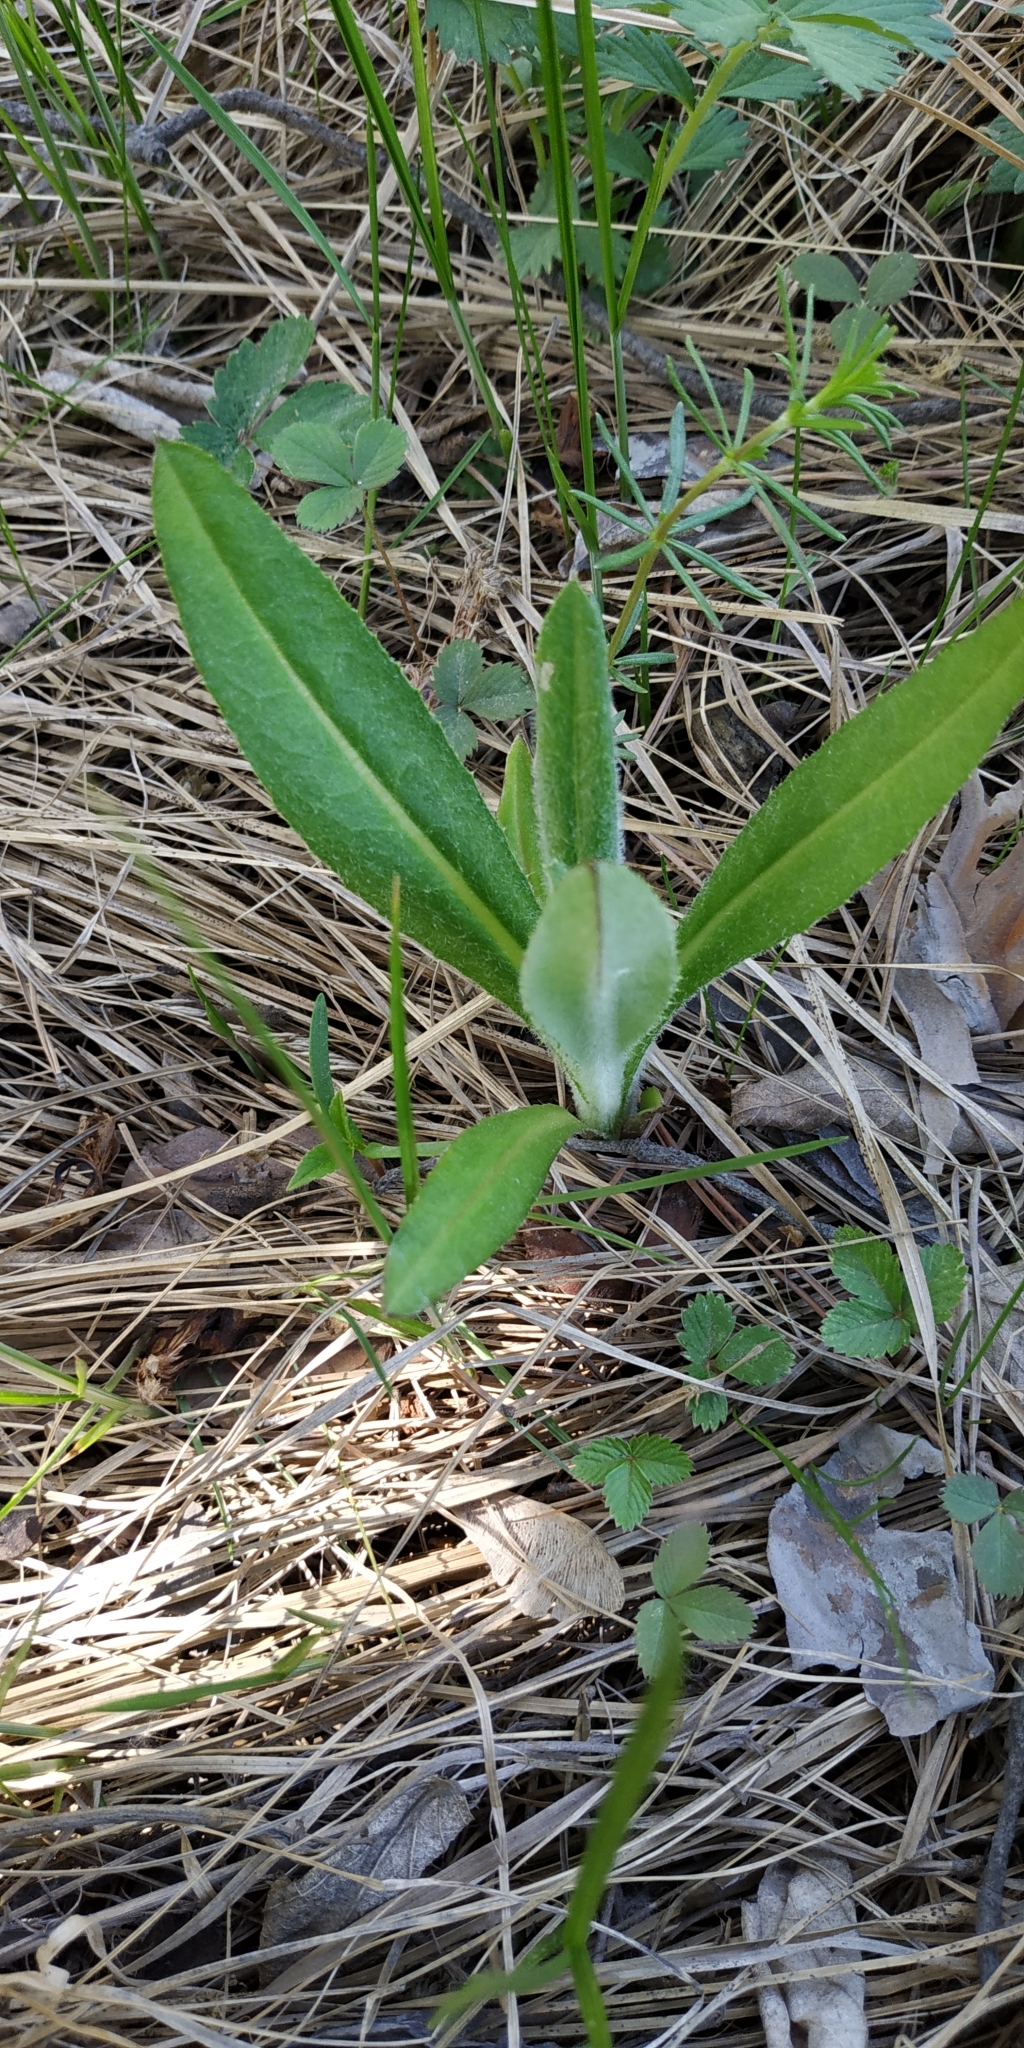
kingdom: Plantae
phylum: Tracheophyta
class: Magnoliopsida
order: Asterales
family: Asteraceae
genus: Cirsium
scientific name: Cirsium arvense
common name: Creeping thistle
